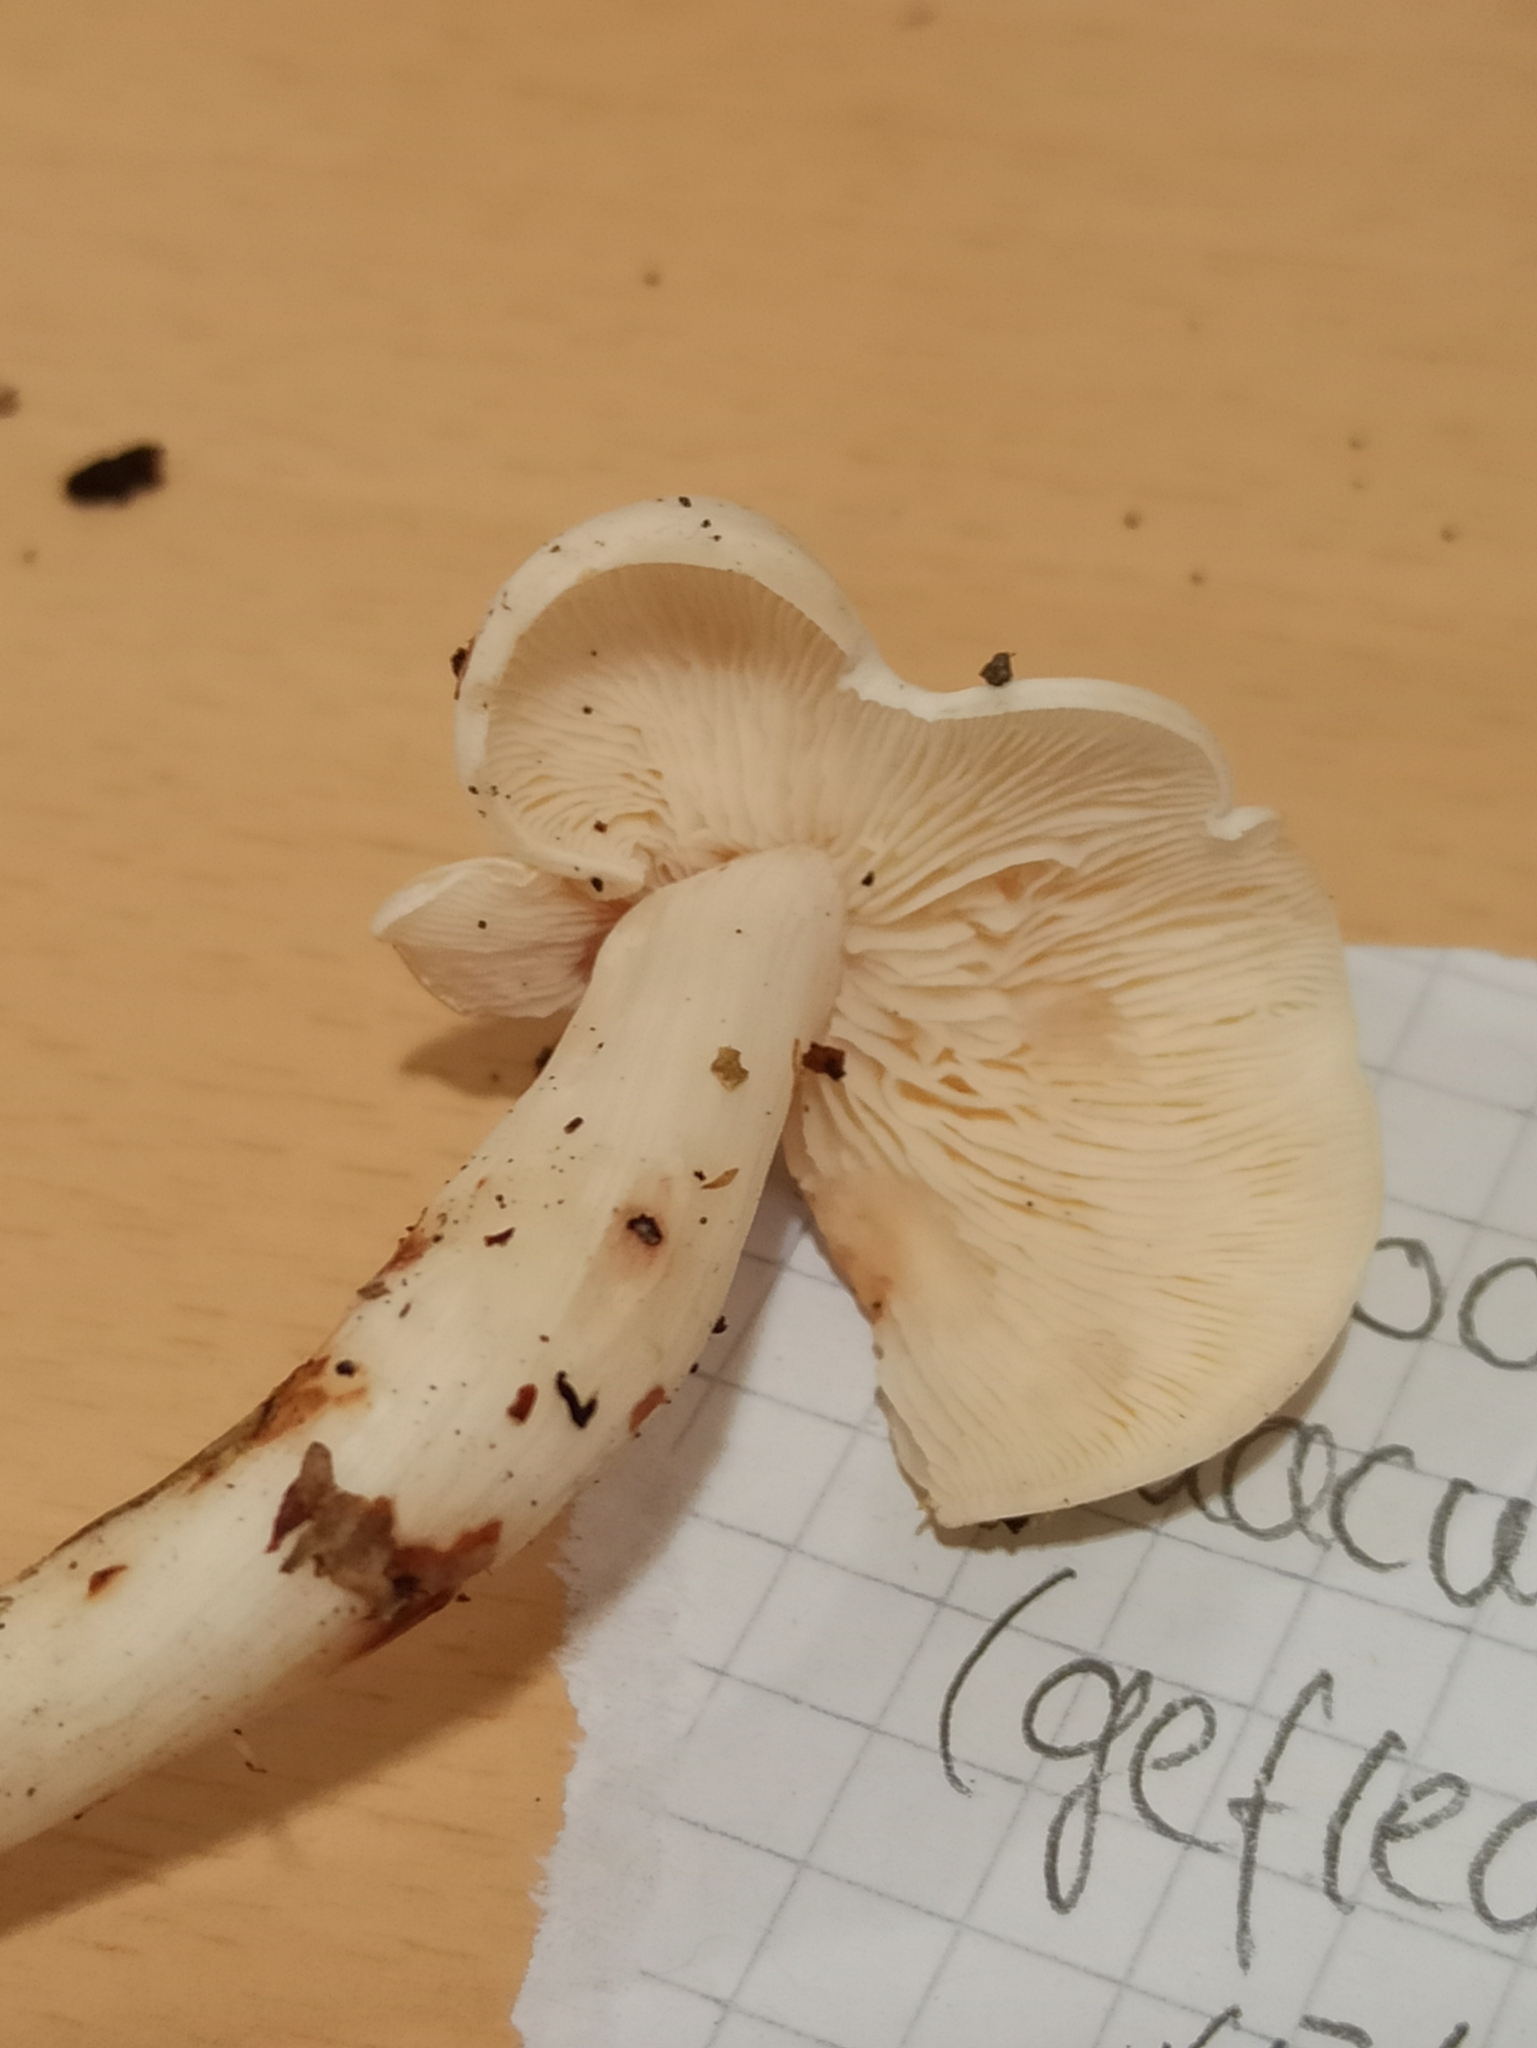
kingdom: Fungi
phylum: Basidiomycota
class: Agaricomycetes
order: Agaricales
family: Omphalotaceae
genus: Rhodocollybia
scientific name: Rhodocollybia maculata
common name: Spotted tough-shank
